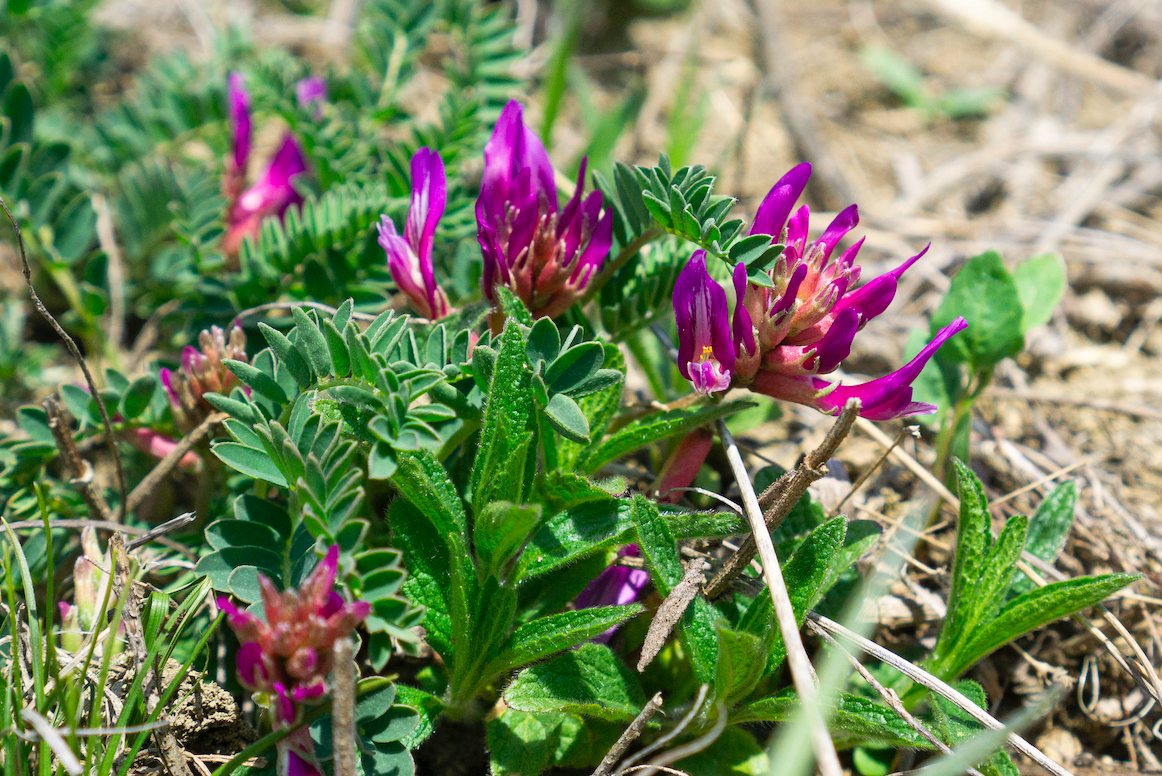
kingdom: Plantae
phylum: Tracheophyta
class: Magnoliopsida
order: Fabales
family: Fabaceae
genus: Astragalus
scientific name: Astragalus monspessulanus
